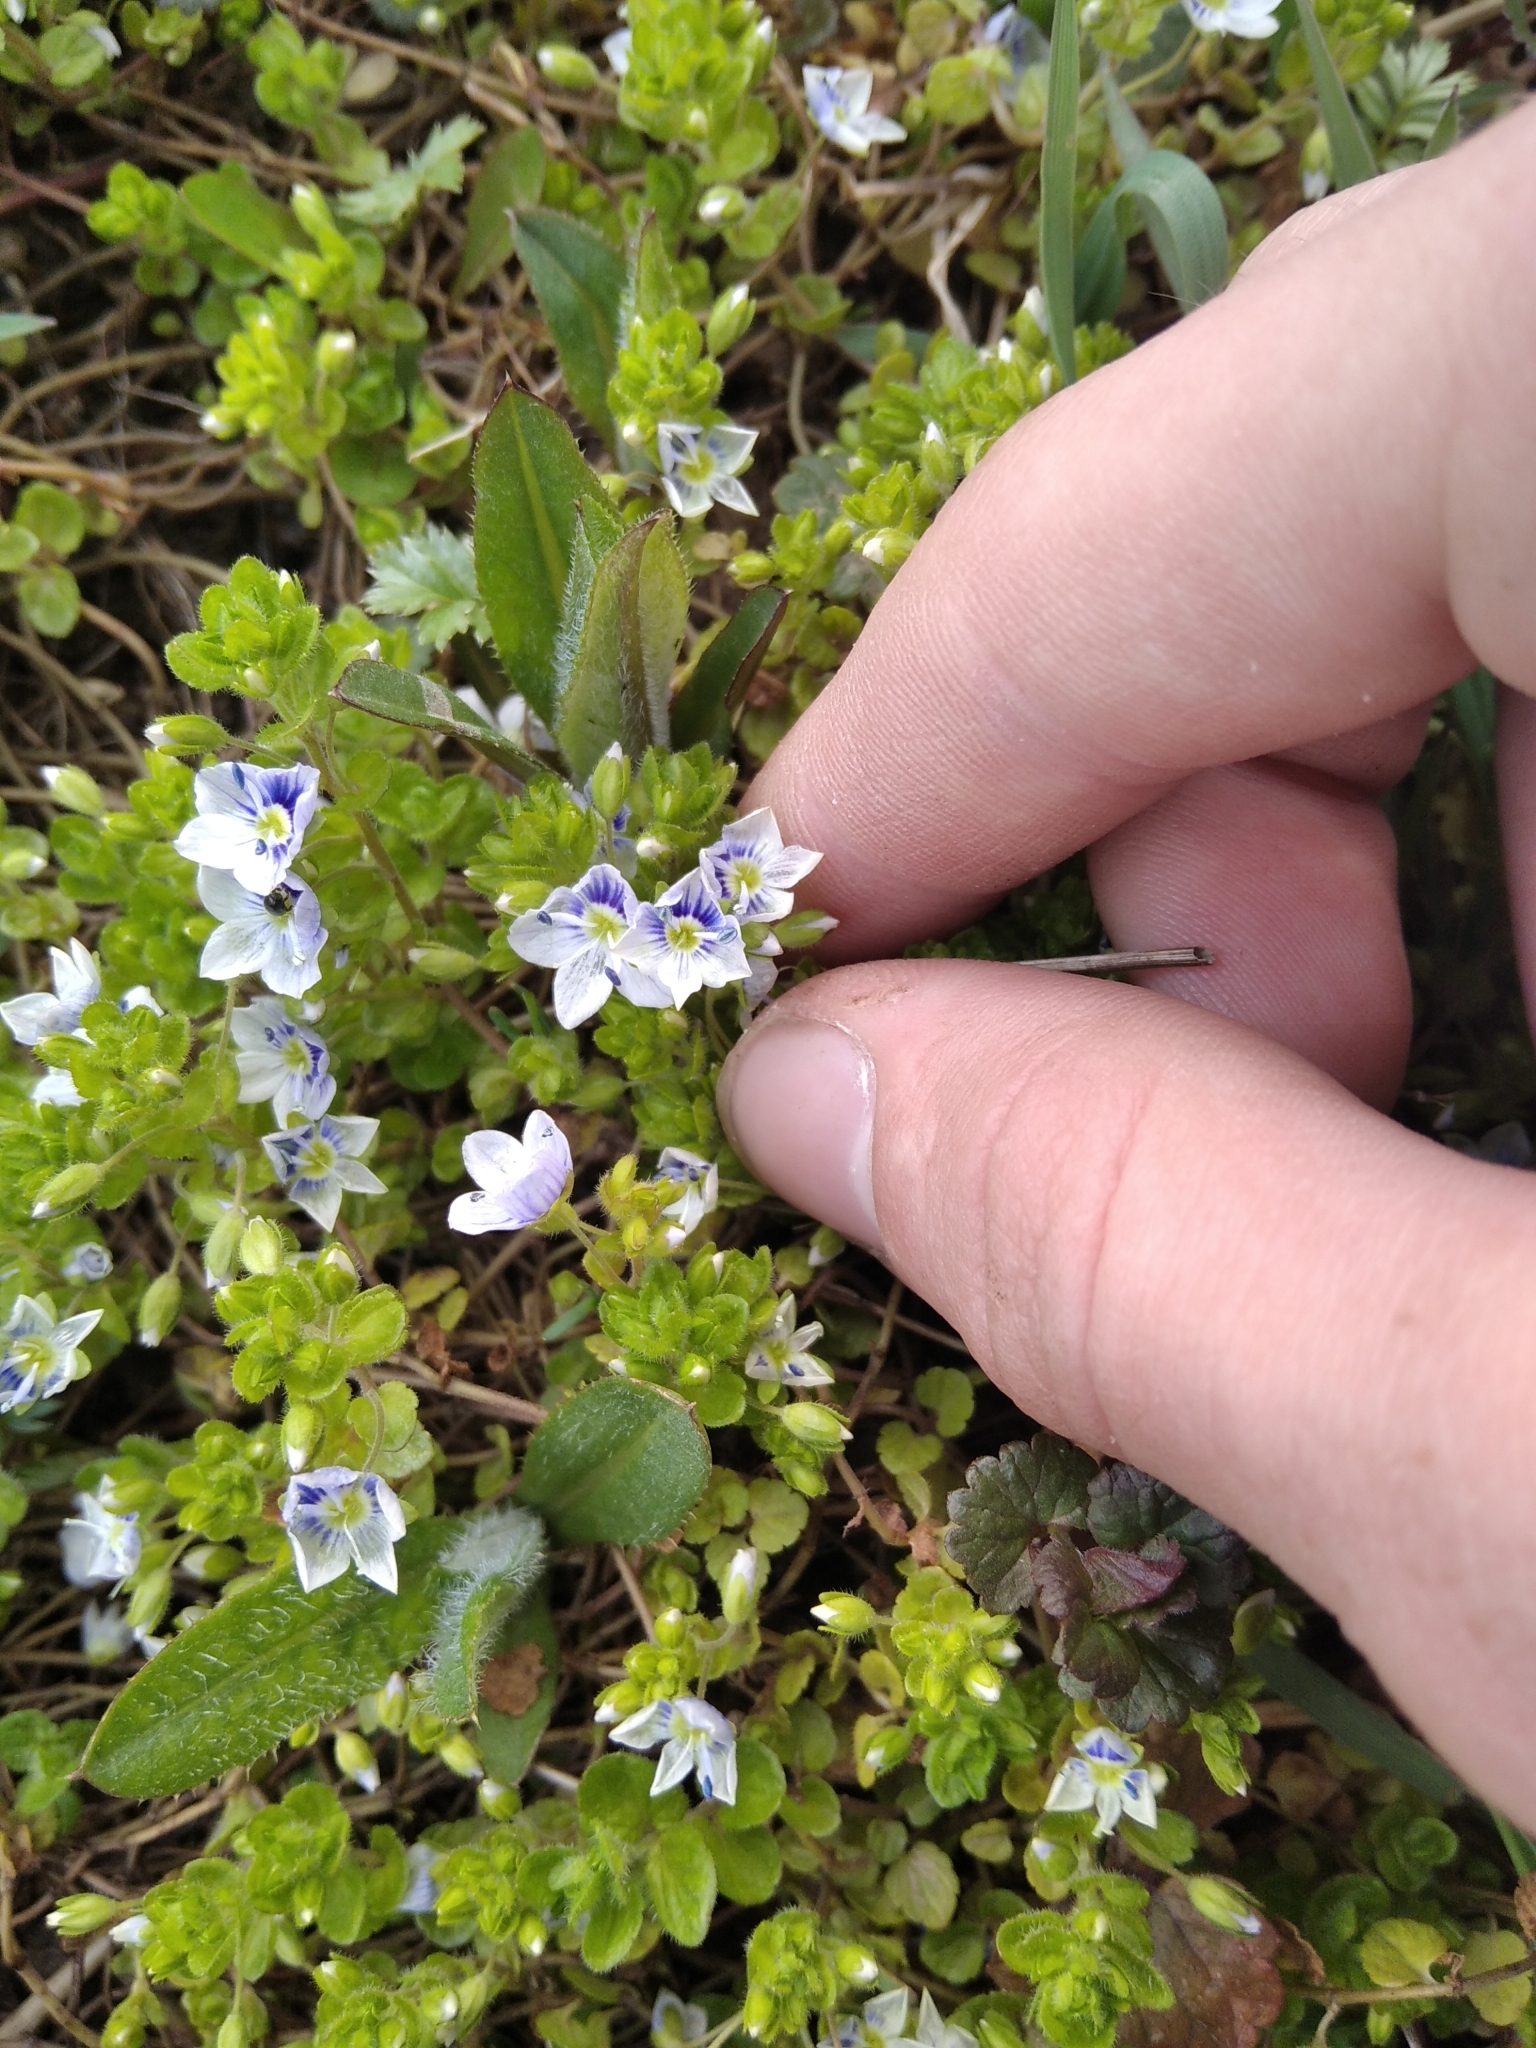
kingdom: Plantae
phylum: Tracheophyta
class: Magnoliopsida
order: Lamiales
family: Plantaginaceae
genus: Veronica
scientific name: Veronica filiformis
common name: Slender speedwell
